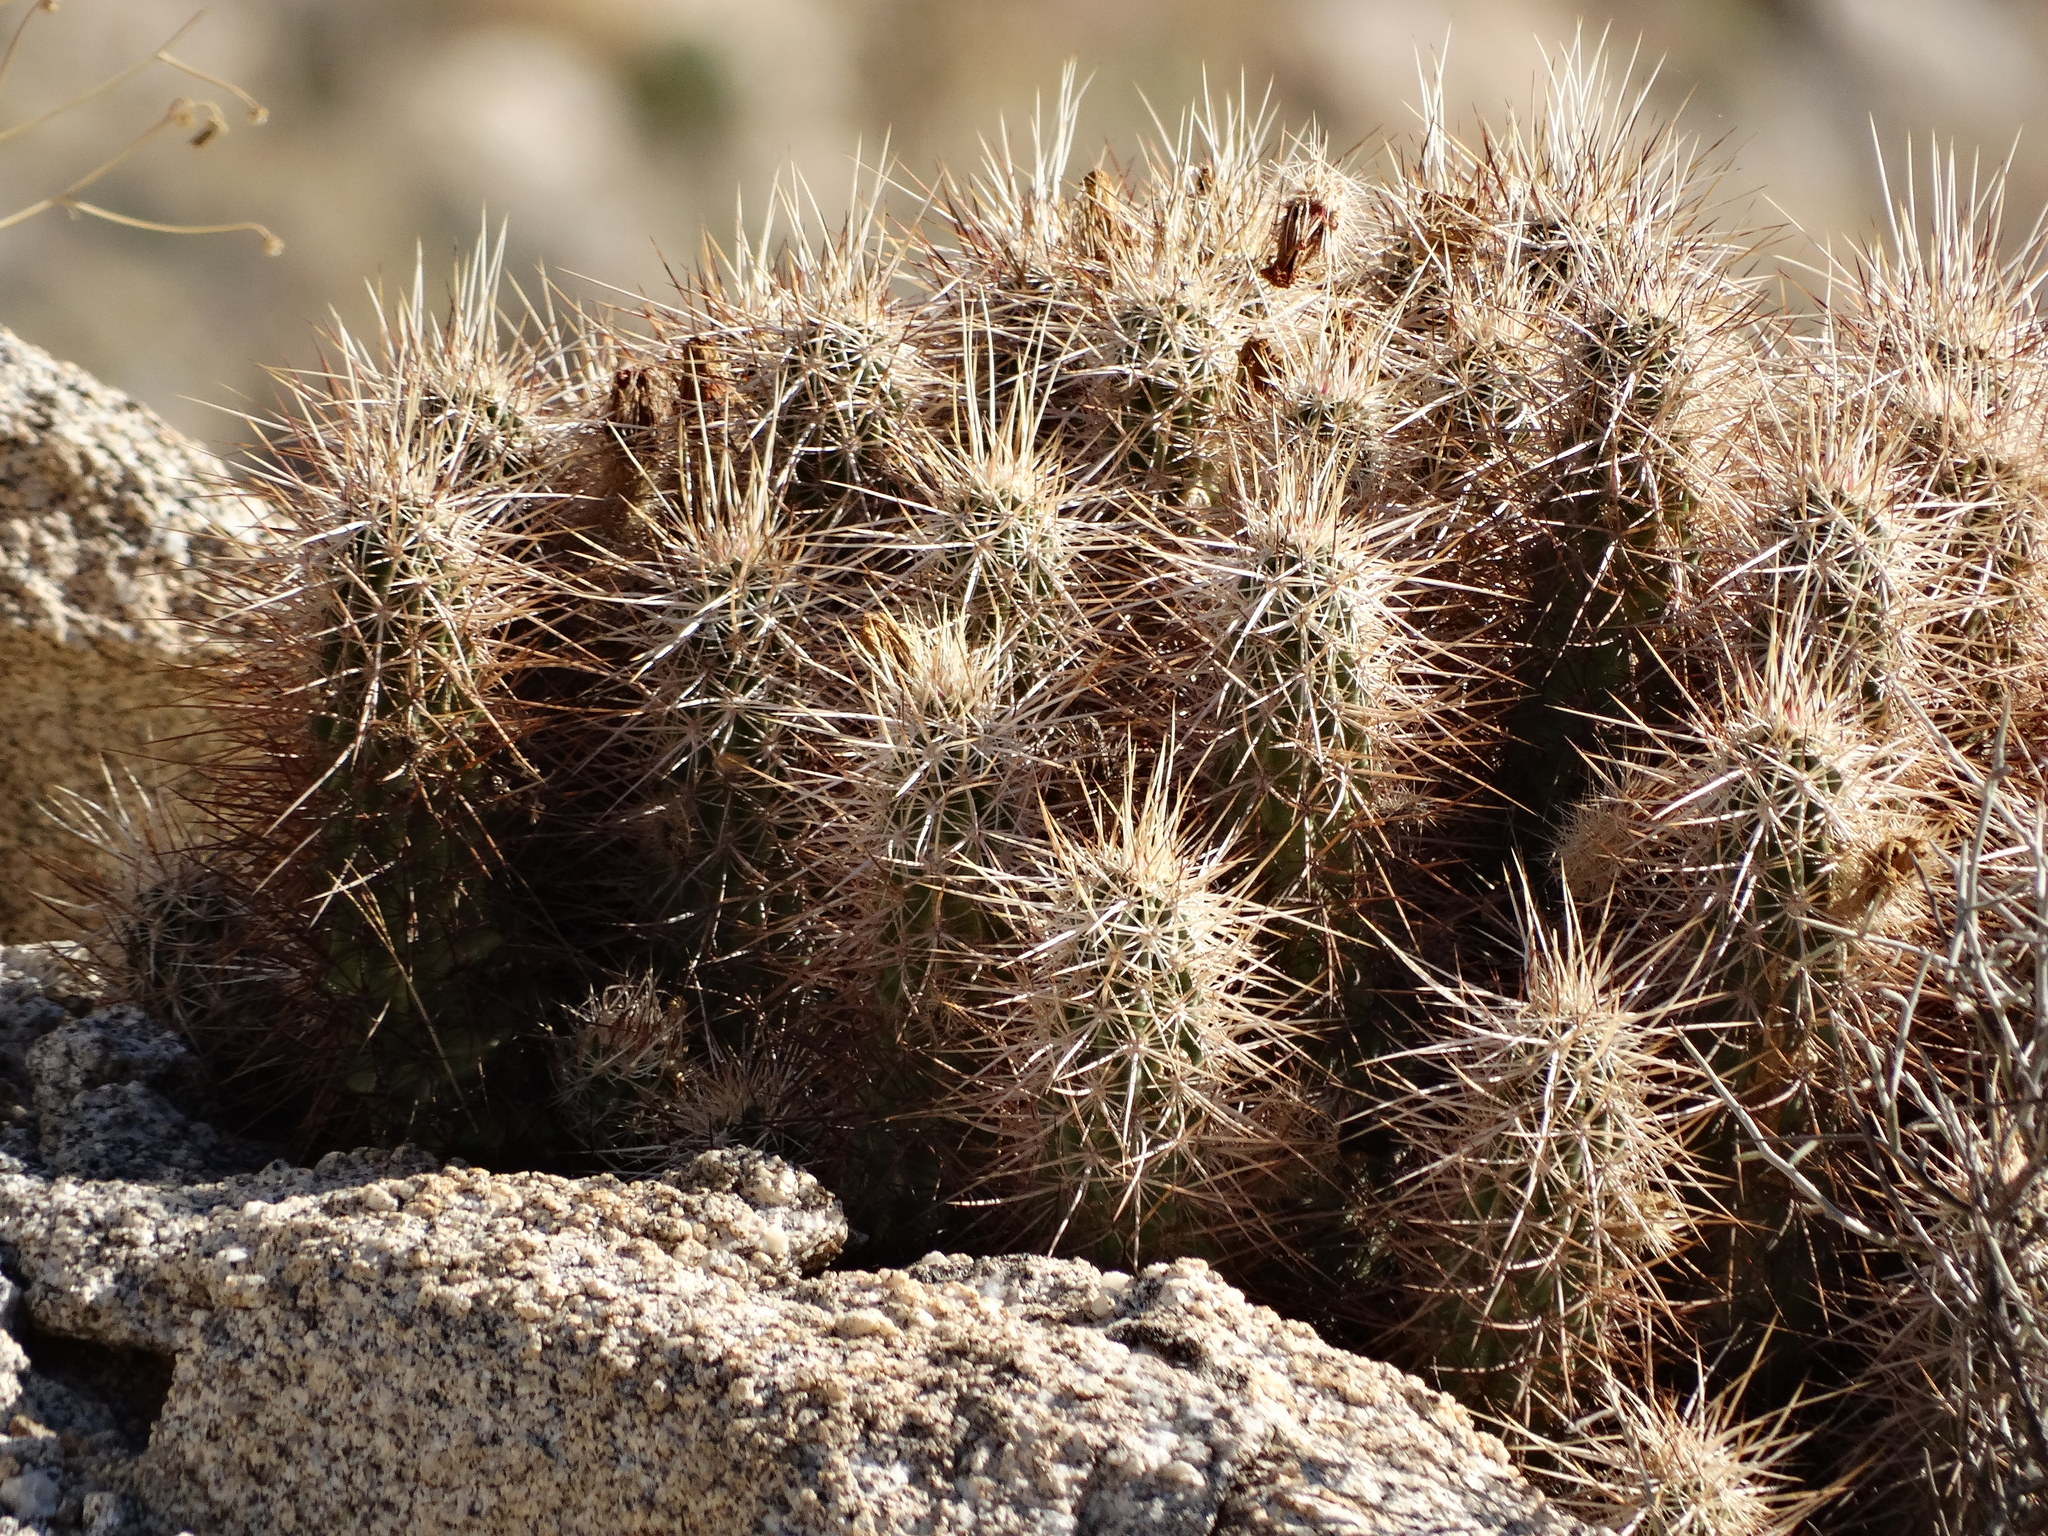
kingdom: Plantae
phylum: Tracheophyta
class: Magnoliopsida
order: Caryophyllales
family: Cactaceae
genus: Echinocereus
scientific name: Echinocereus engelmannii
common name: Engelmann's hedgehog cactus
